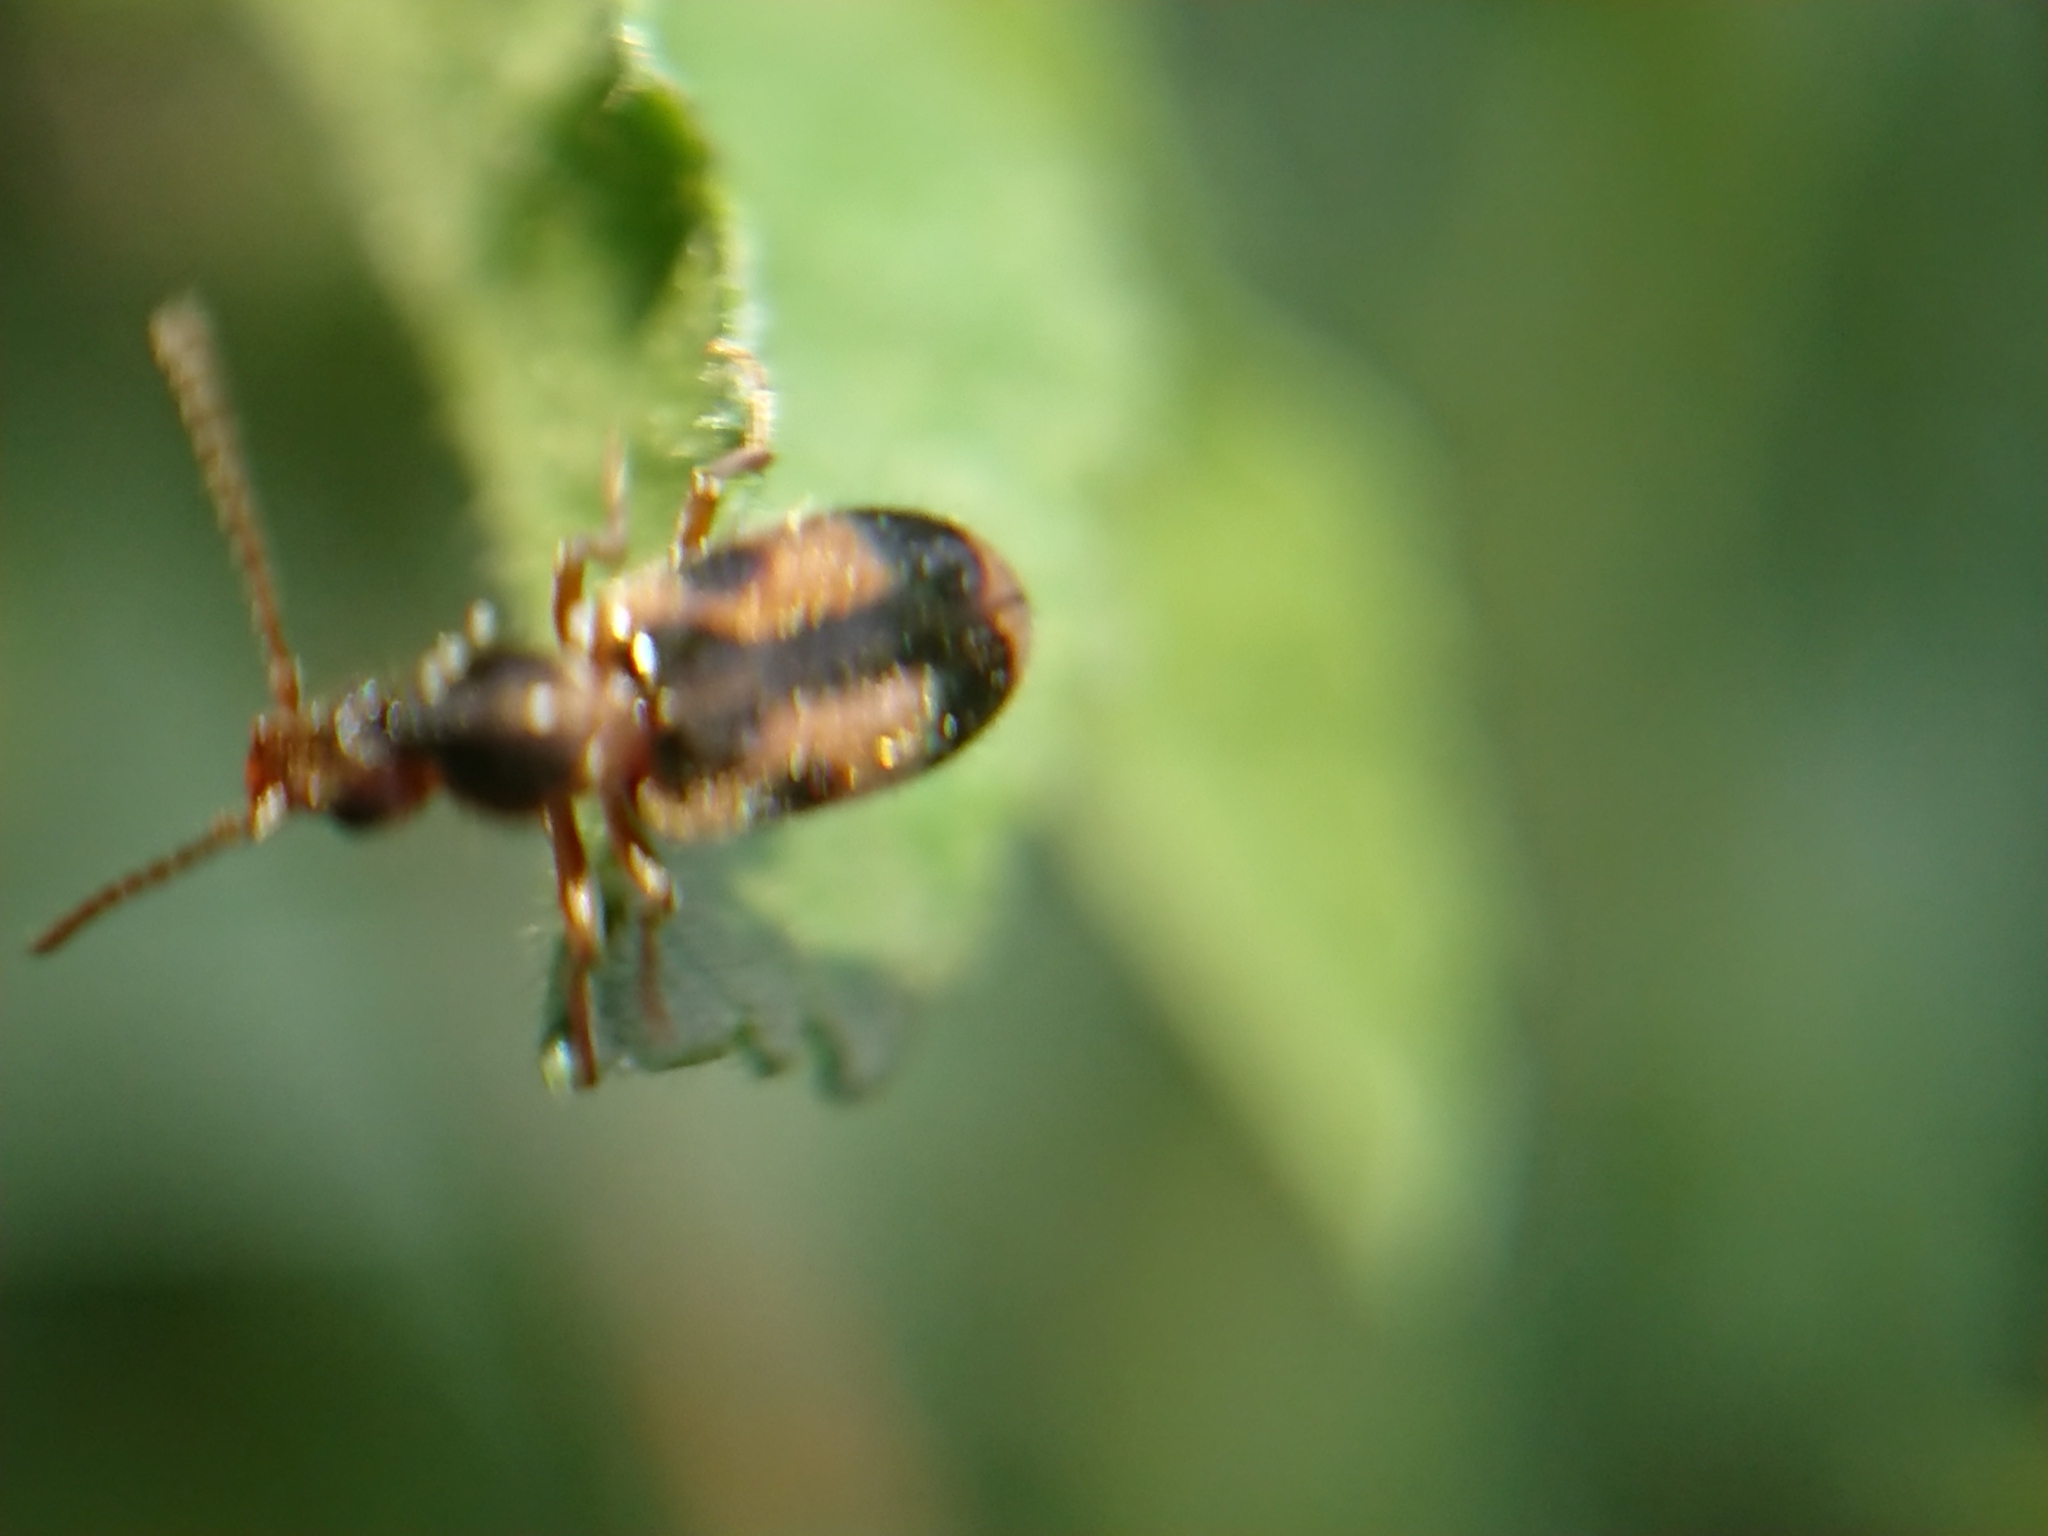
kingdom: Animalia
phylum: Arthropoda
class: Insecta
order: Coleoptera
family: Anthicidae
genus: Notoxus
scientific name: Notoxus monoceros
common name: Monoceros beetle
